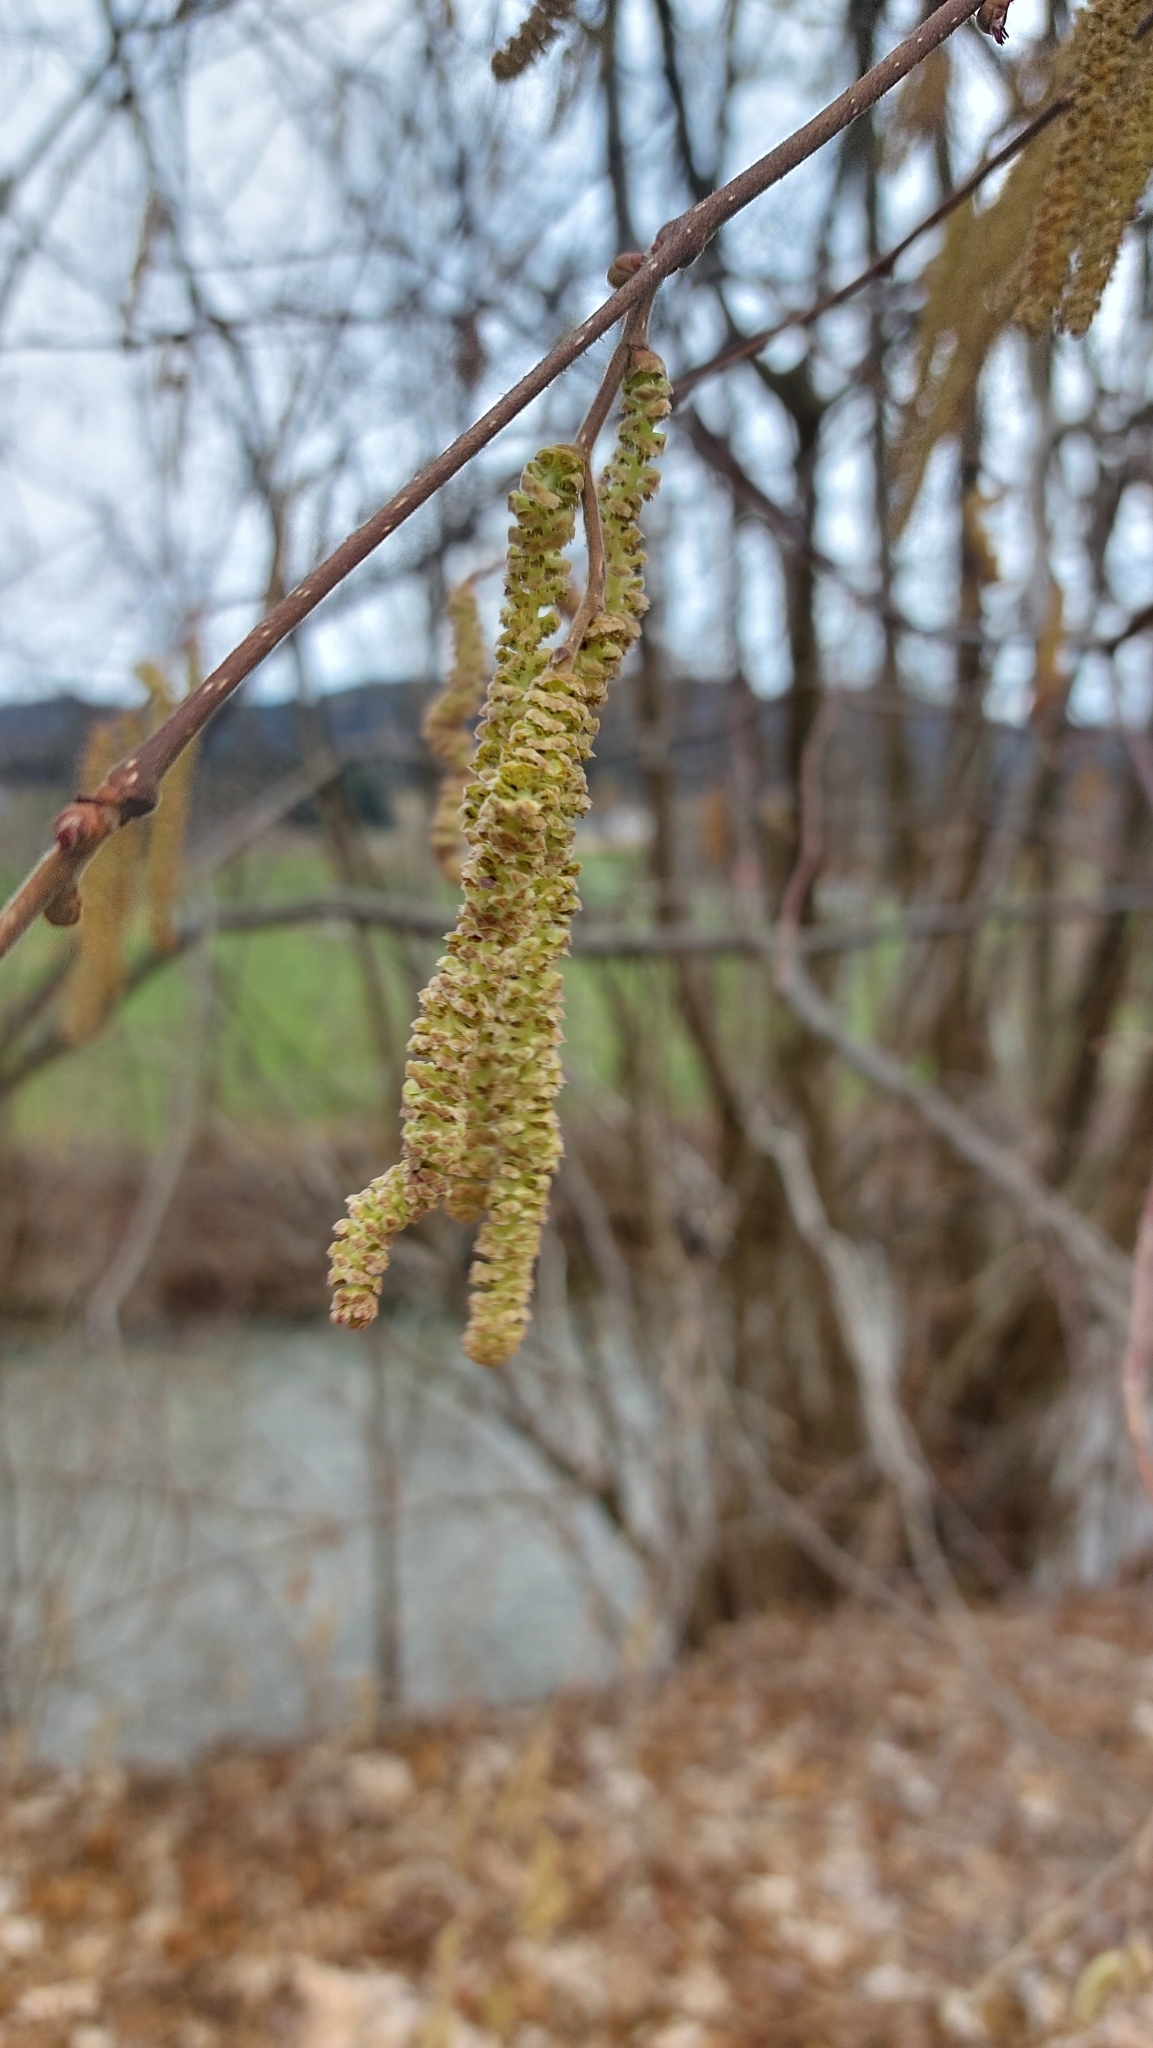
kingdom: Plantae
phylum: Tracheophyta
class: Magnoliopsida
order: Fagales
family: Betulaceae
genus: Corylus
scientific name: Corylus avellana
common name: European hazel
